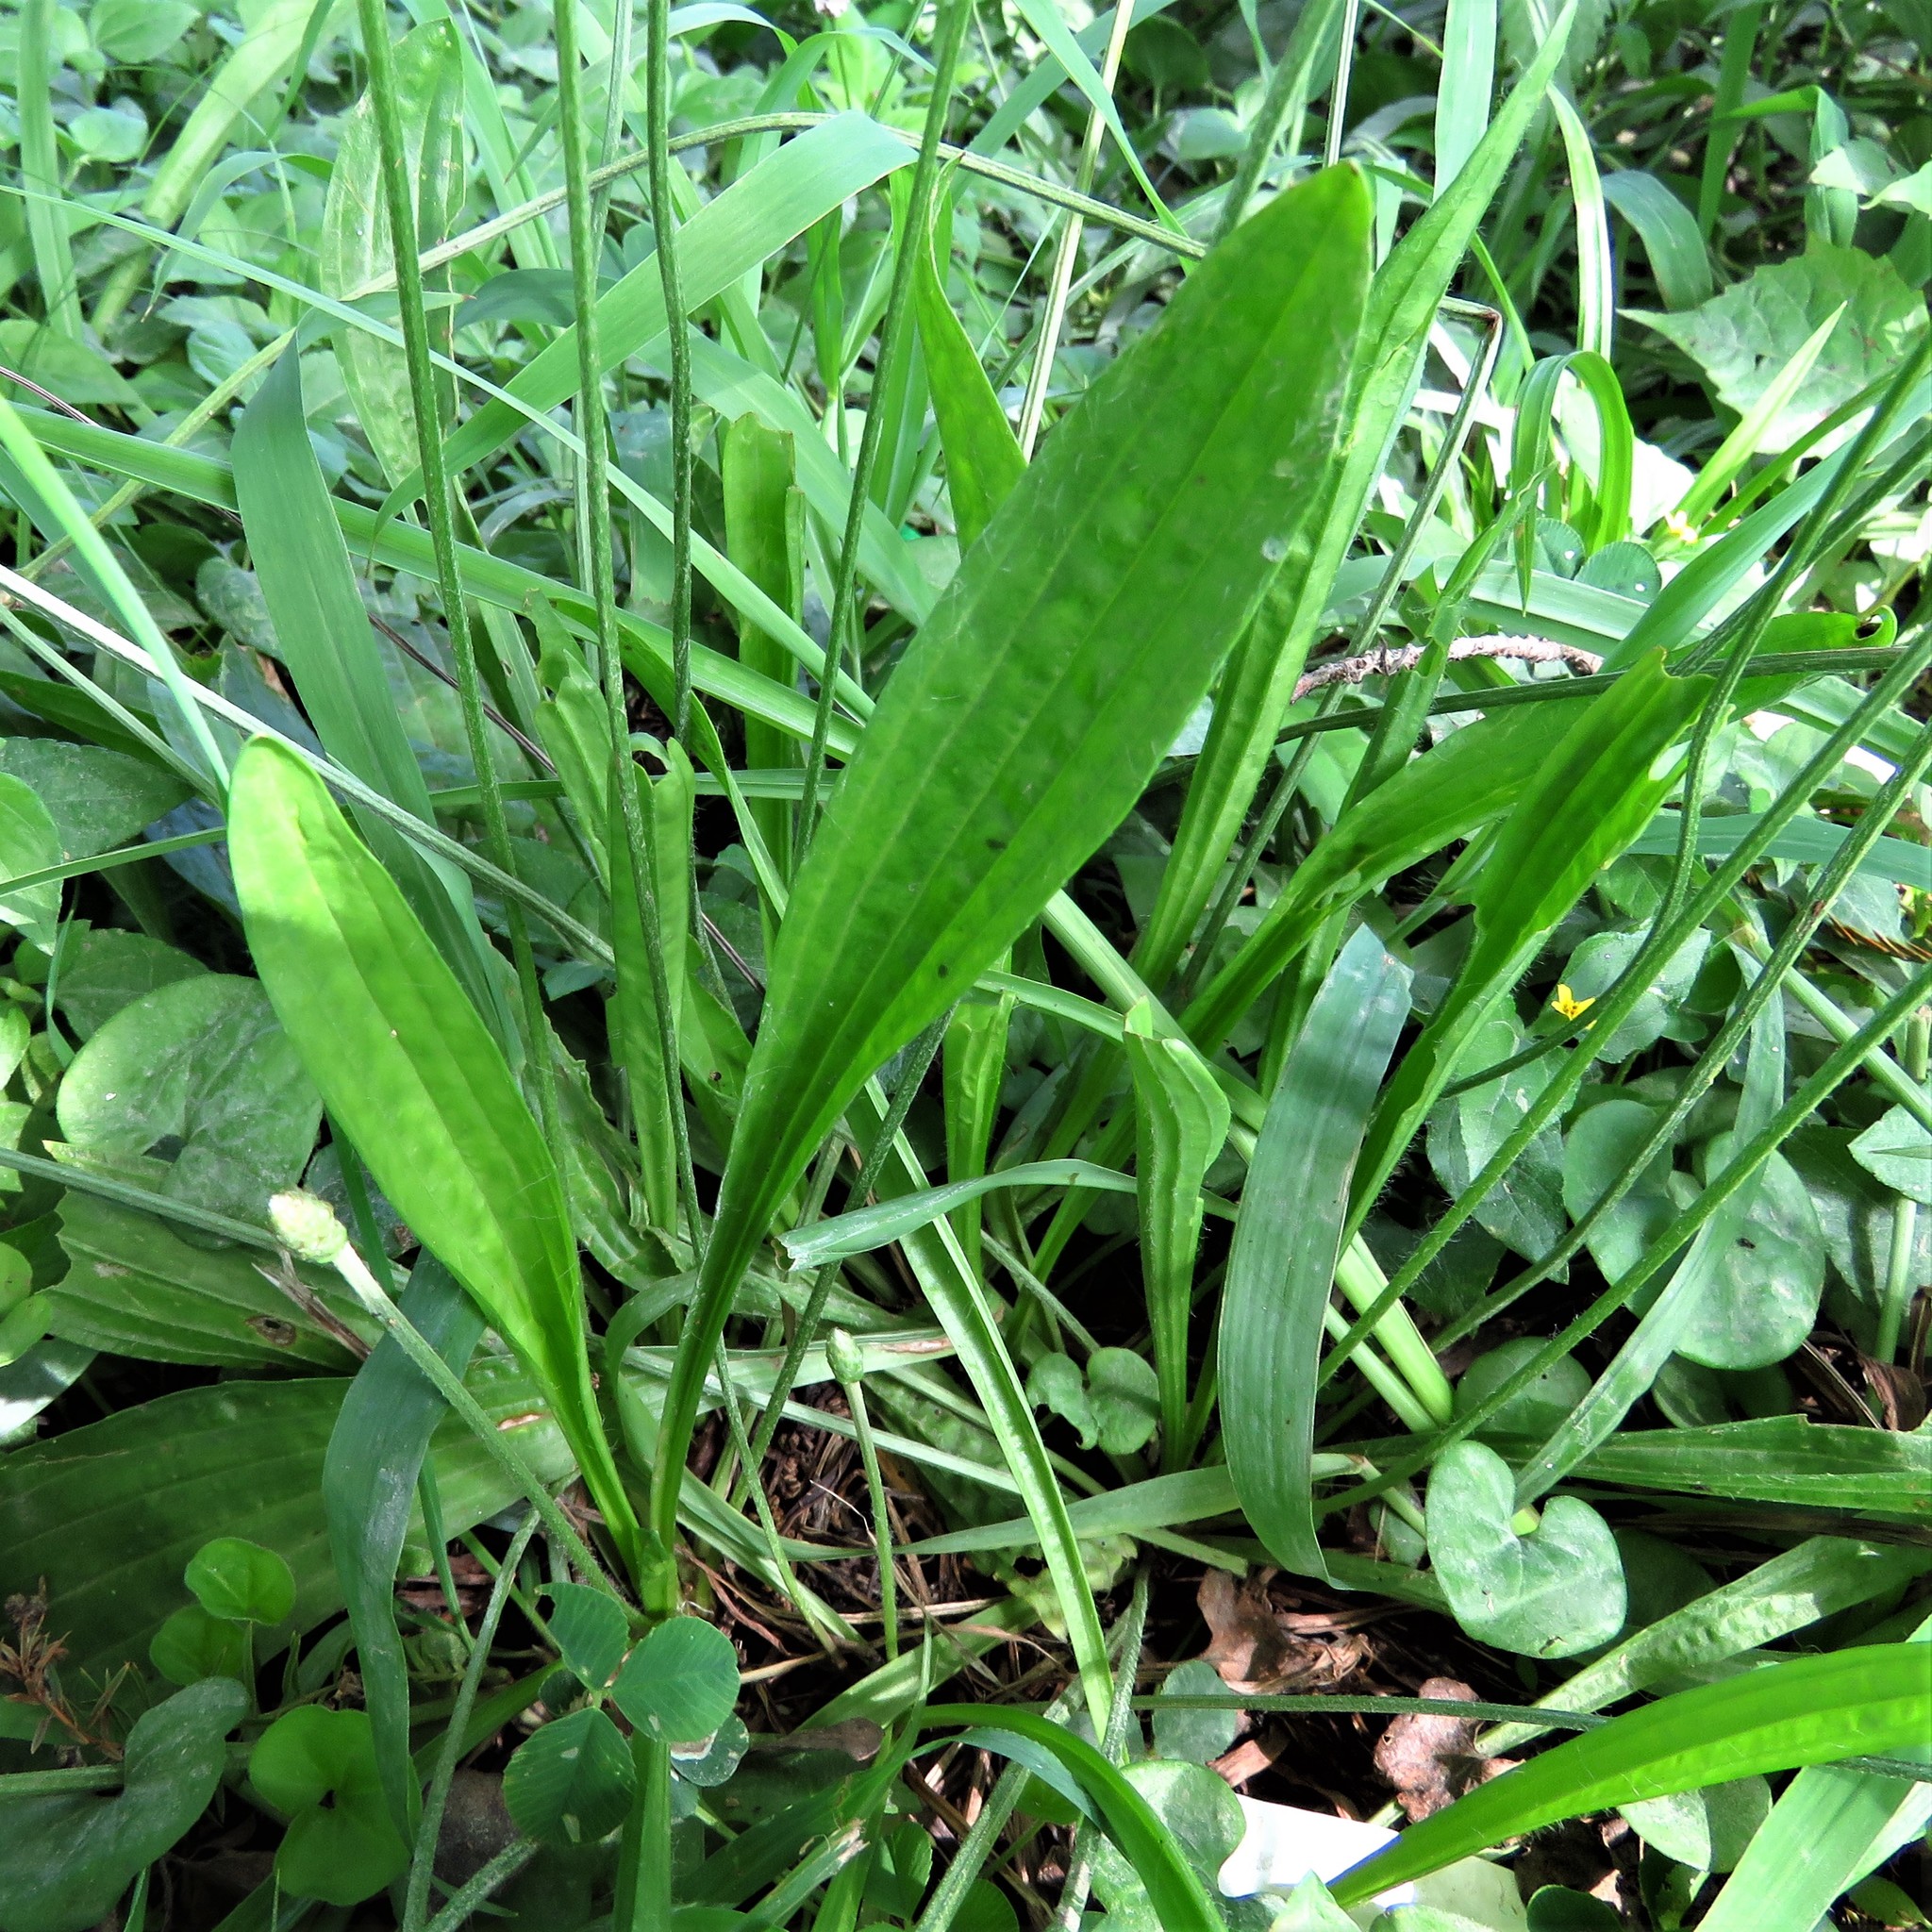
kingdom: Plantae
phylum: Tracheophyta
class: Magnoliopsida
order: Lamiales
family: Plantaginaceae
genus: Plantago
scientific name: Plantago lanceolata
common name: Ribwort plantain
